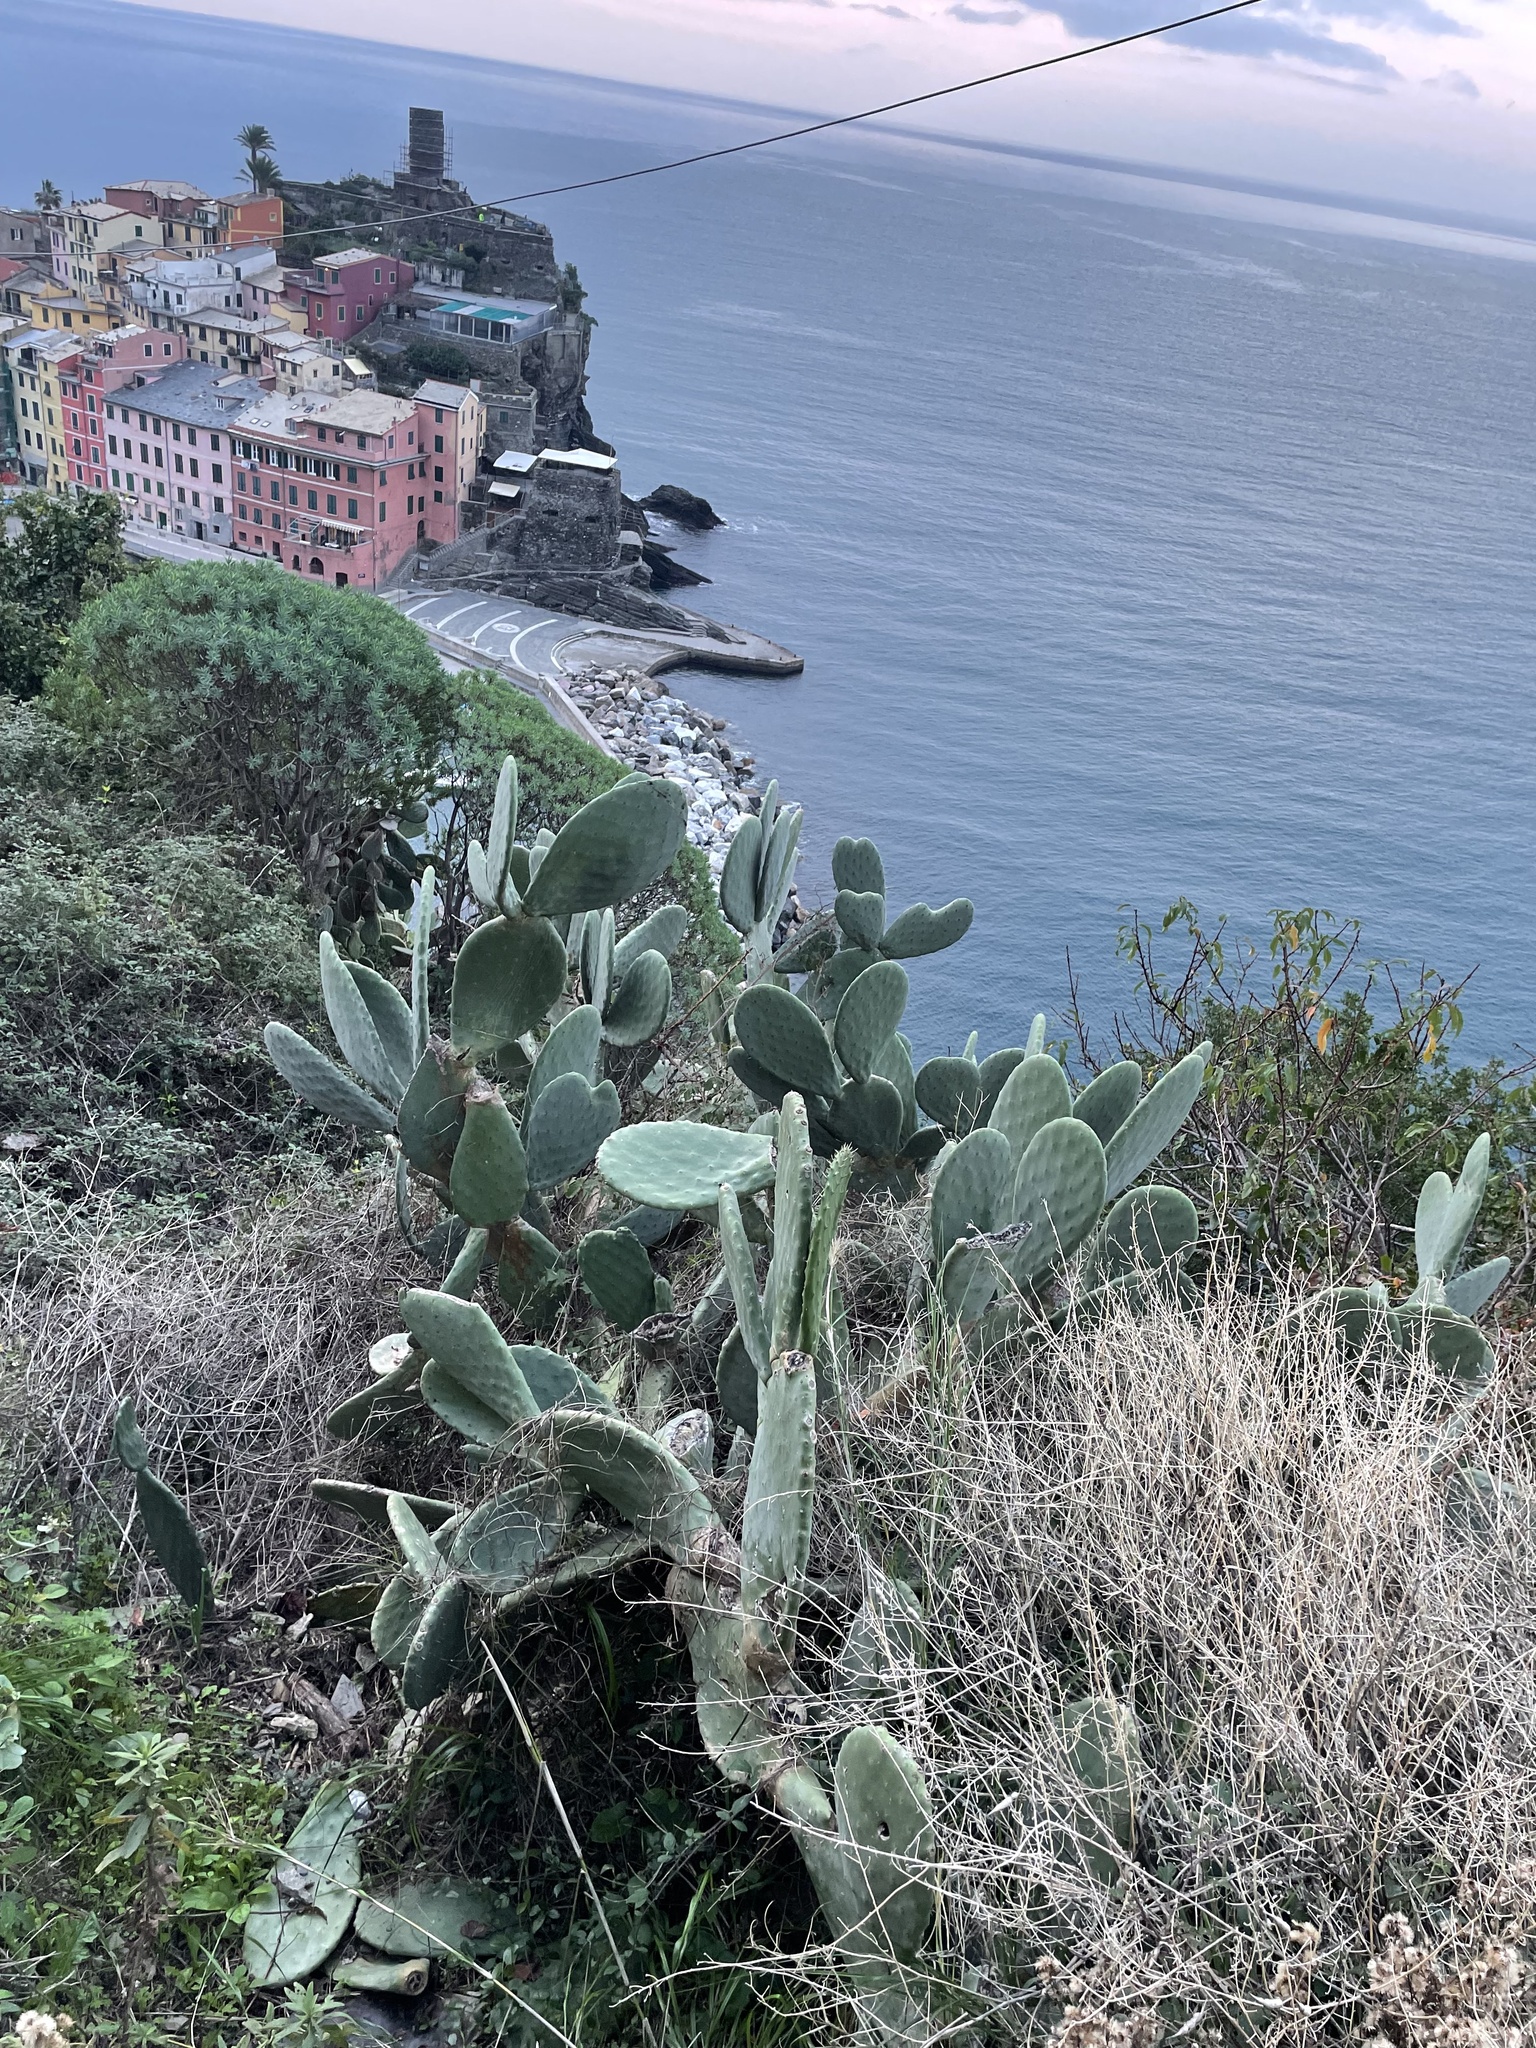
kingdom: Plantae
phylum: Tracheophyta
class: Magnoliopsida
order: Caryophyllales
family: Cactaceae
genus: Opuntia
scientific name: Opuntia ficus-indica
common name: Barbary fig
